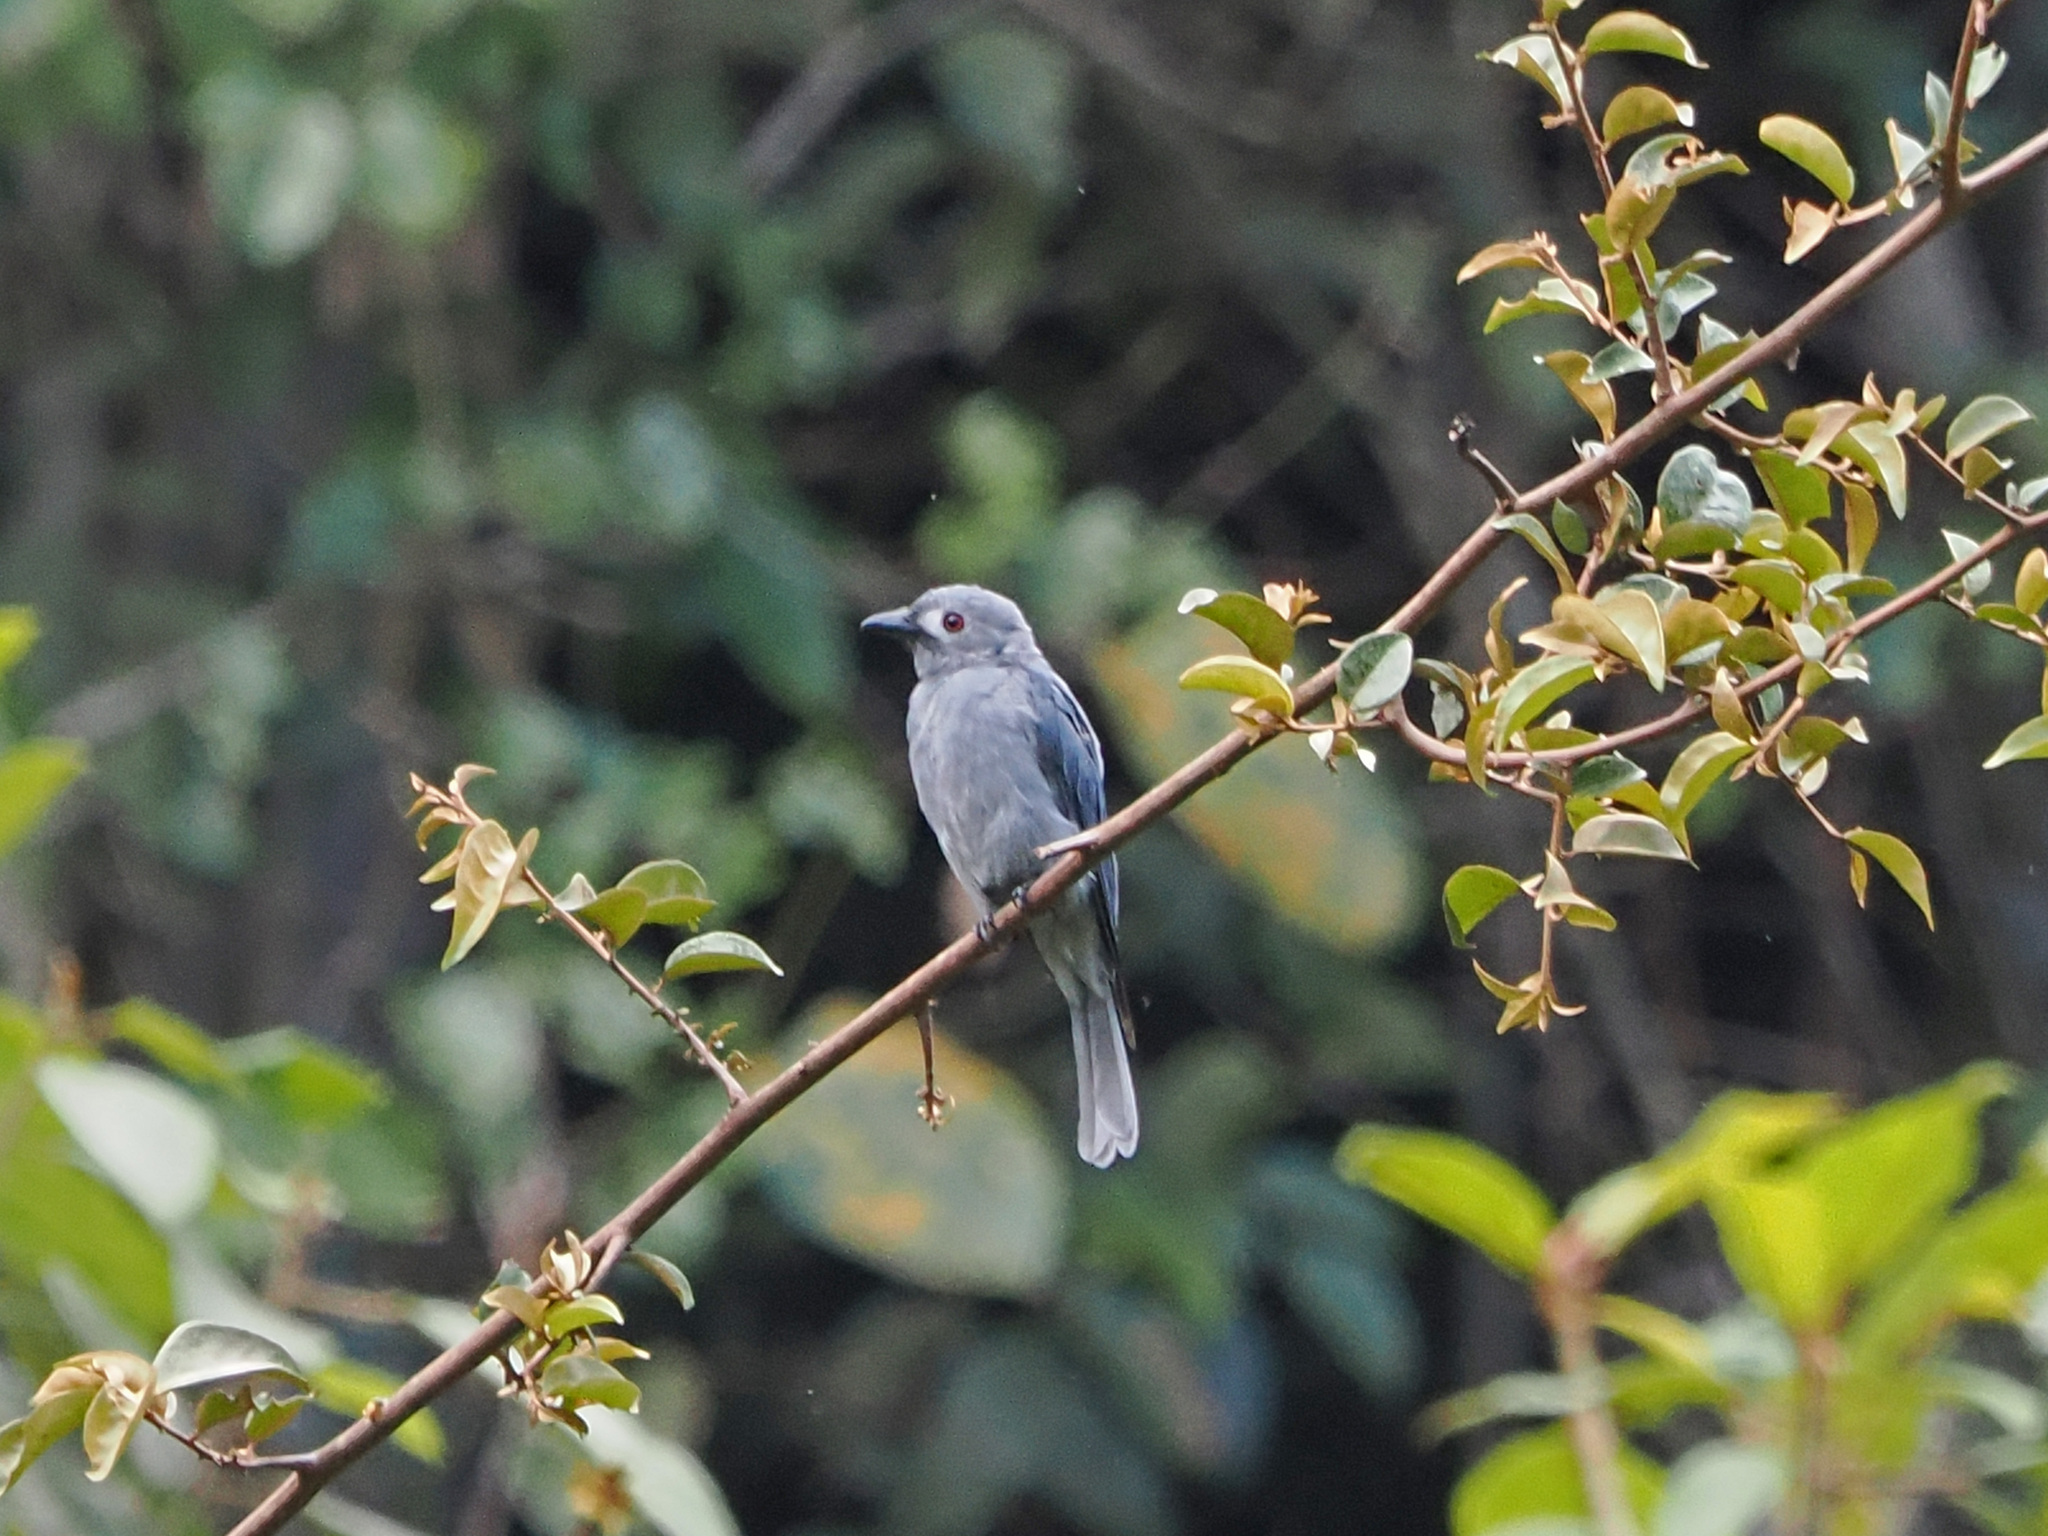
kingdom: Animalia
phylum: Chordata
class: Aves
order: Passeriformes
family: Dicruridae
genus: Dicrurus
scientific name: Dicrurus leucophaeus
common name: Ashy drongo
